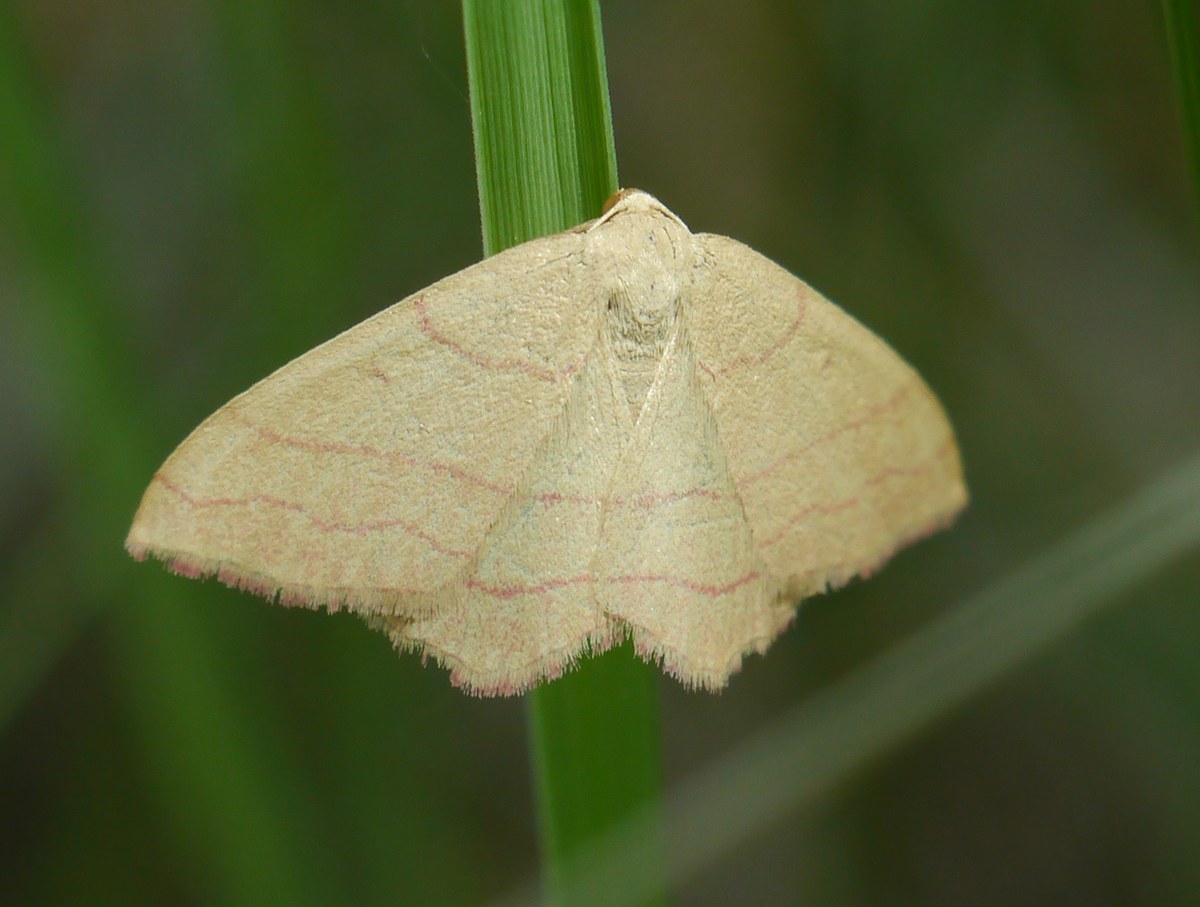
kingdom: Animalia
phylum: Arthropoda
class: Insecta
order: Lepidoptera
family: Geometridae
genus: Rhodostrophia
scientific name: Rhodostrophia vibicaria
